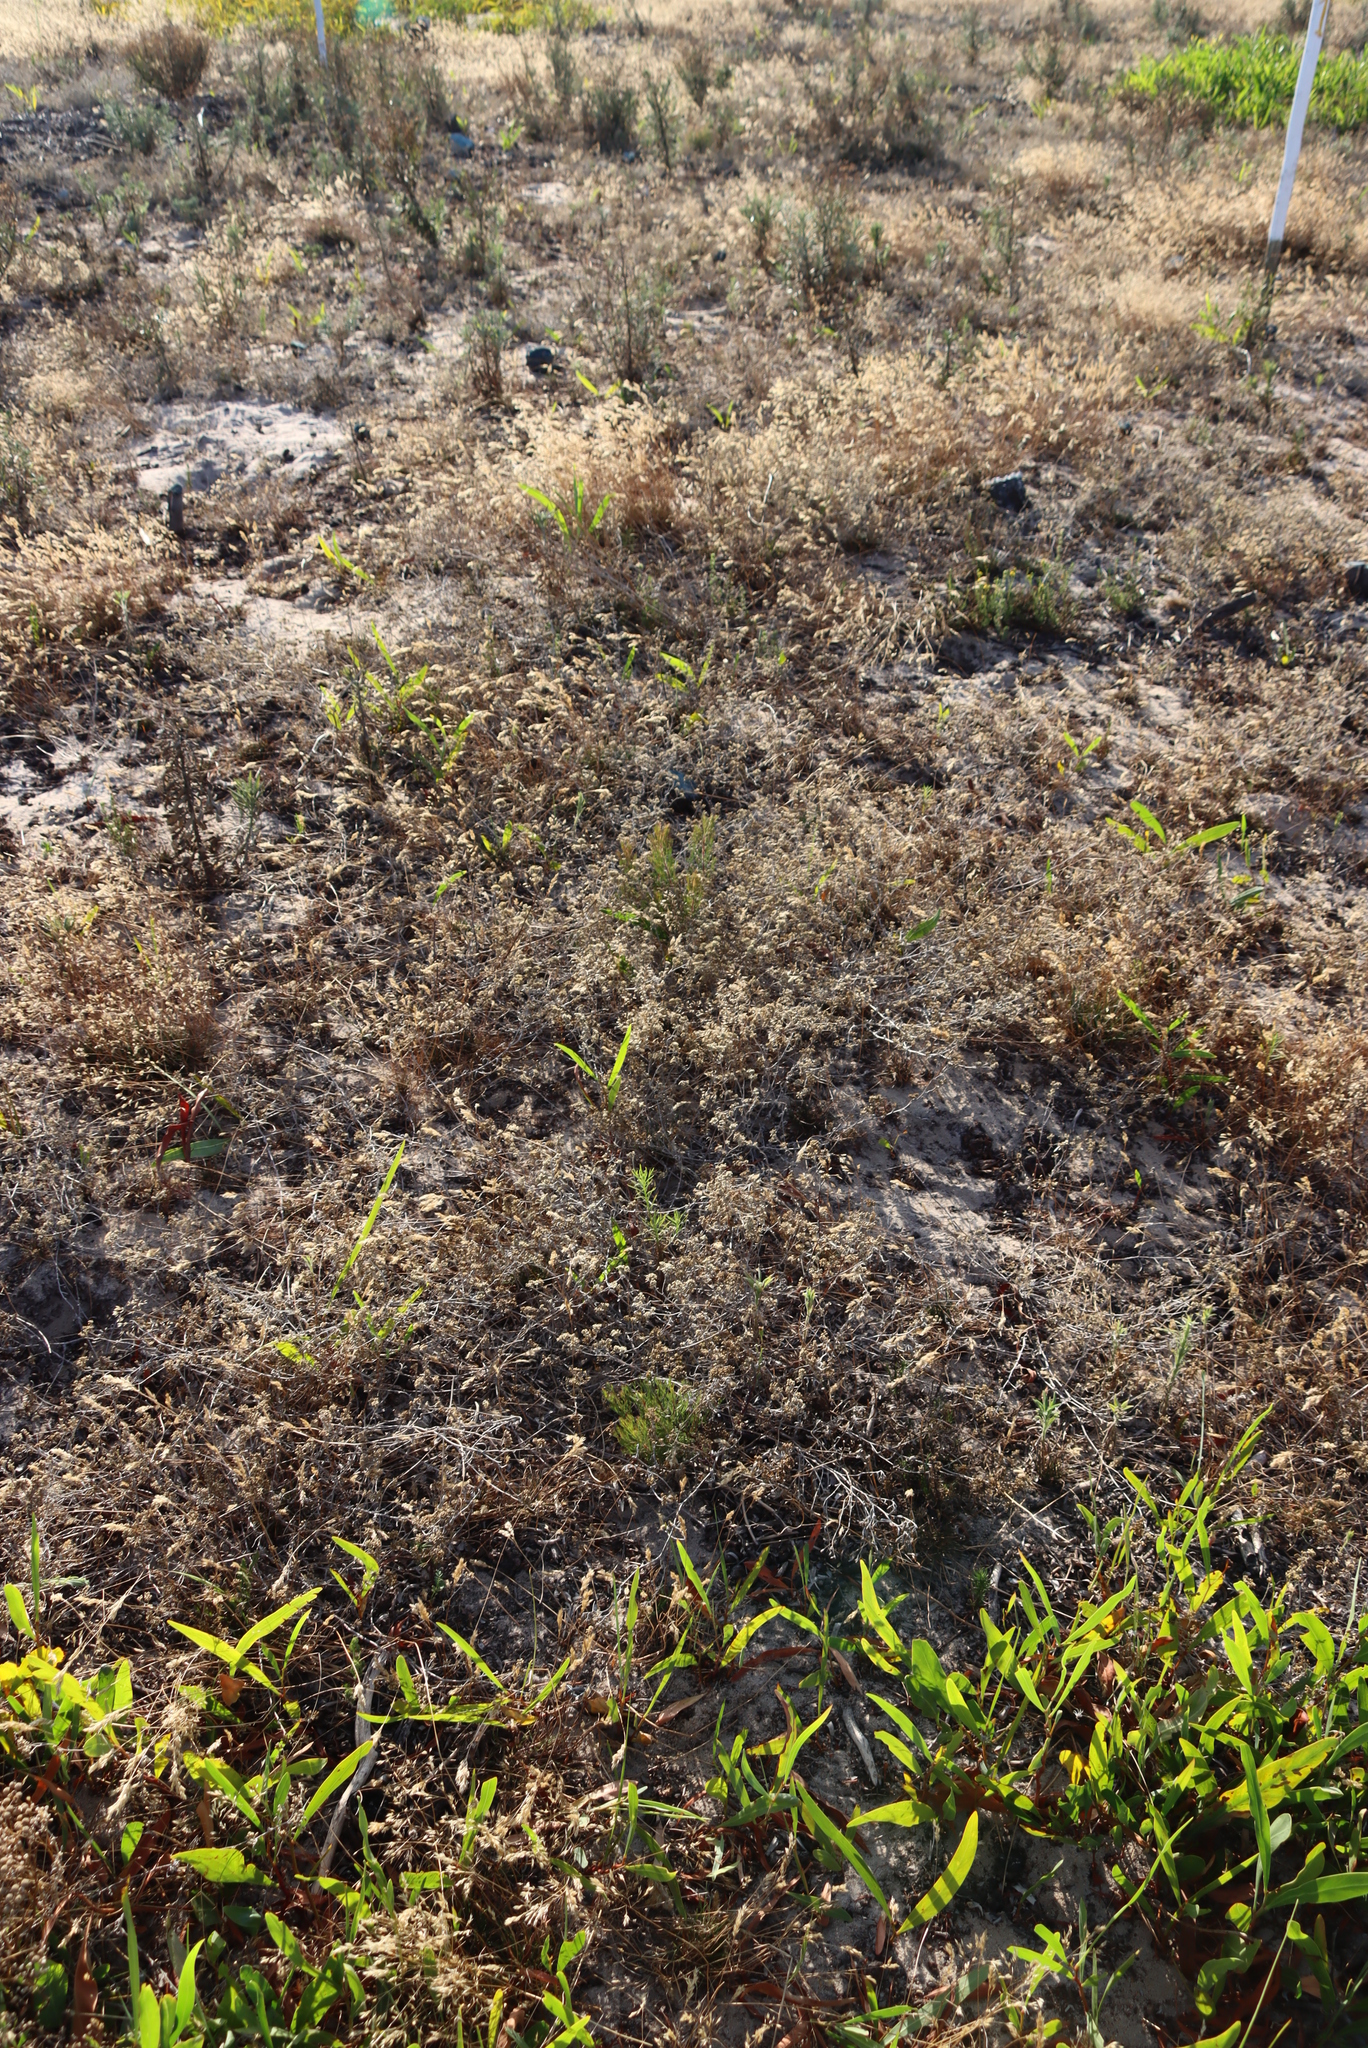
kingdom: Plantae
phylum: Tracheophyta
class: Magnoliopsida
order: Fabales
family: Fabaceae
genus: Acacia
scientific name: Acacia saligna
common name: Orange wattle
